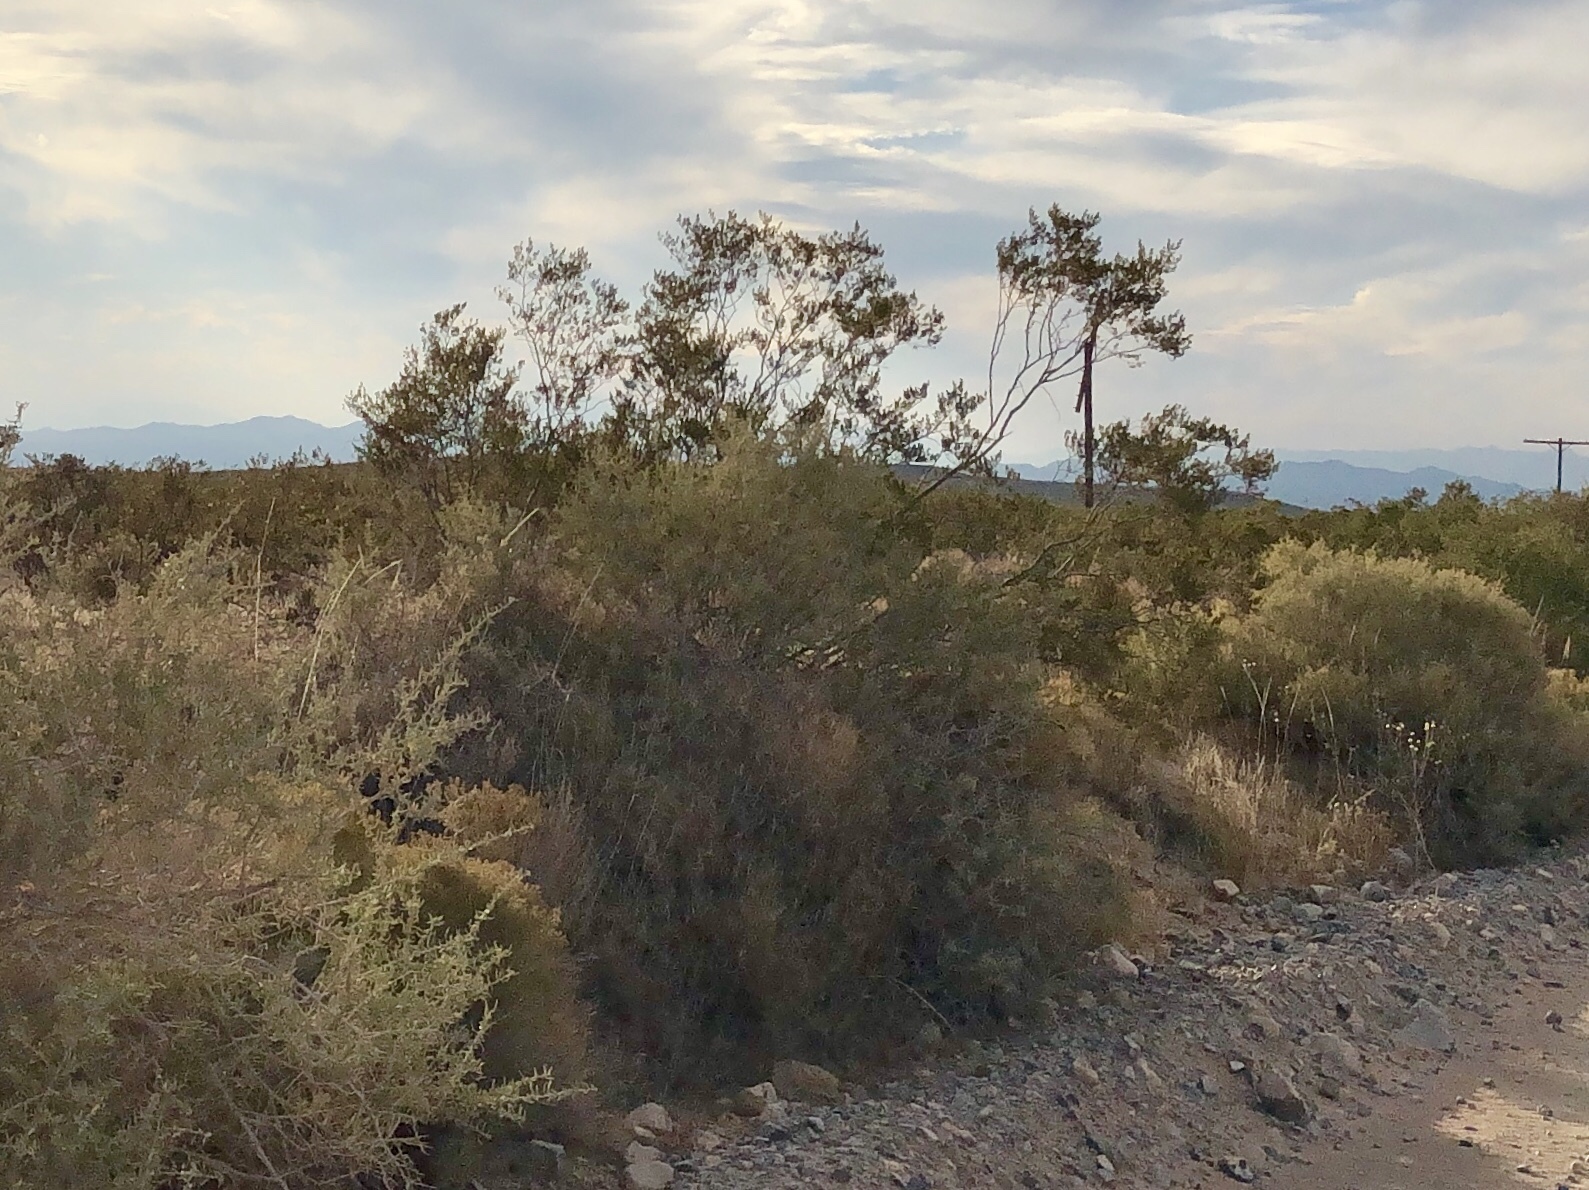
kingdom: Plantae
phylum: Tracheophyta
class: Magnoliopsida
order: Zygophyllales
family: Zygophyllaceae
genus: Larrea
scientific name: Larrea tridentata
